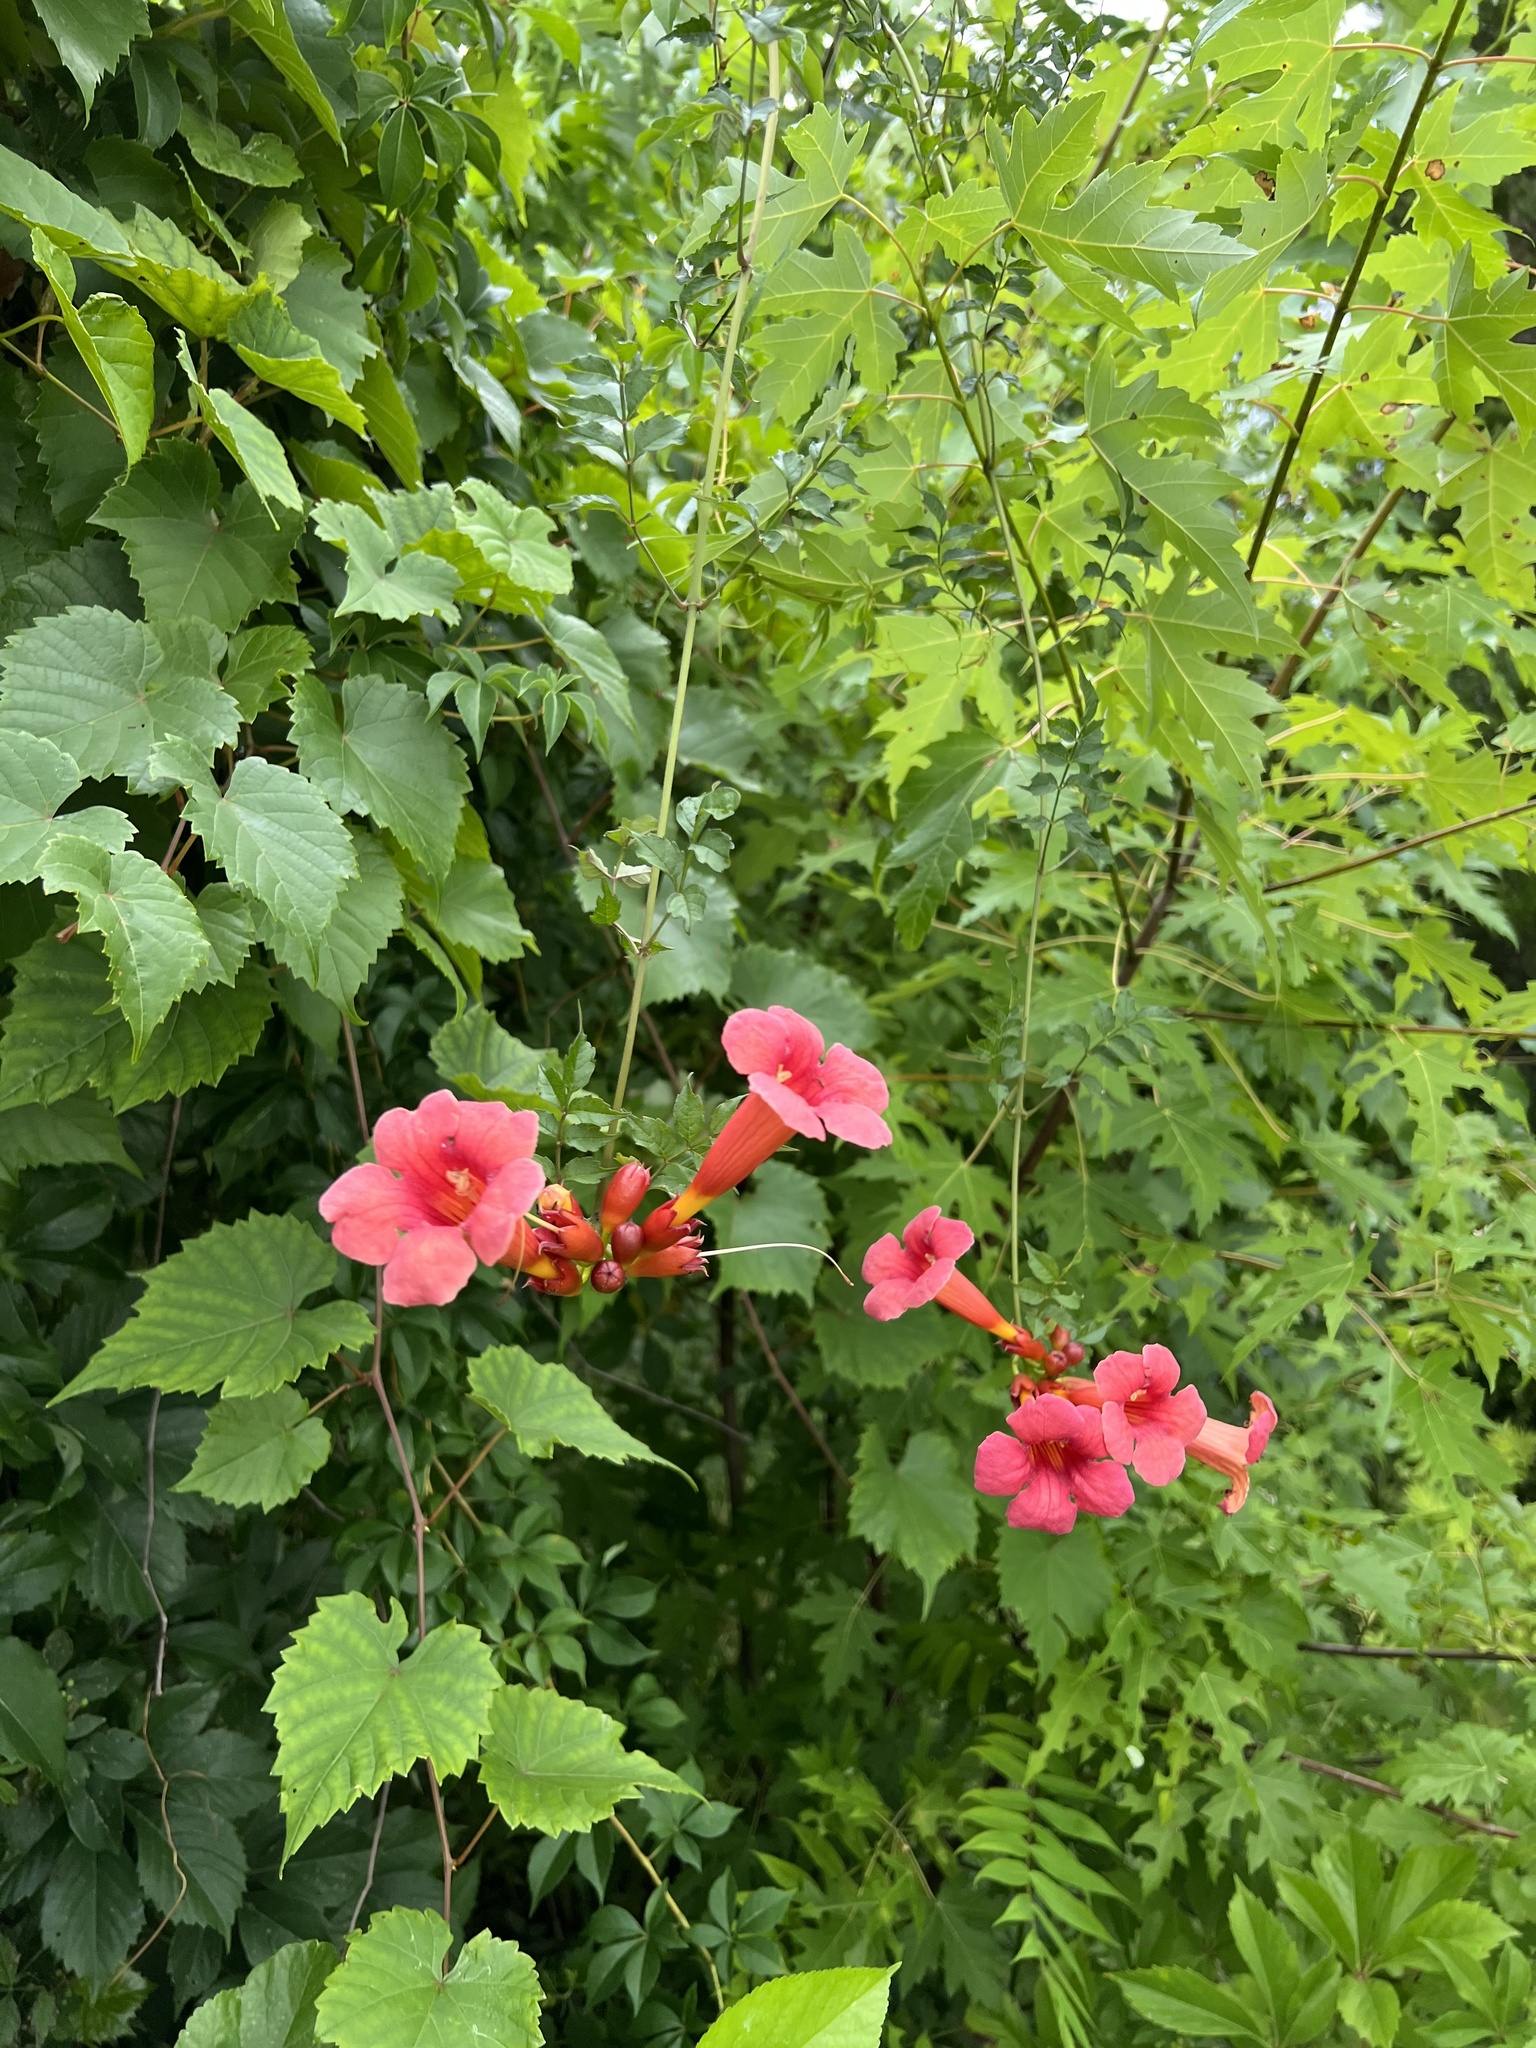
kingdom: Plantae
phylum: Tracheophyta
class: Magnoliopsida
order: Lamiales
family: Bignoniaceae
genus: Campsis
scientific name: Campsis radicans
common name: Trumpet-creeper
